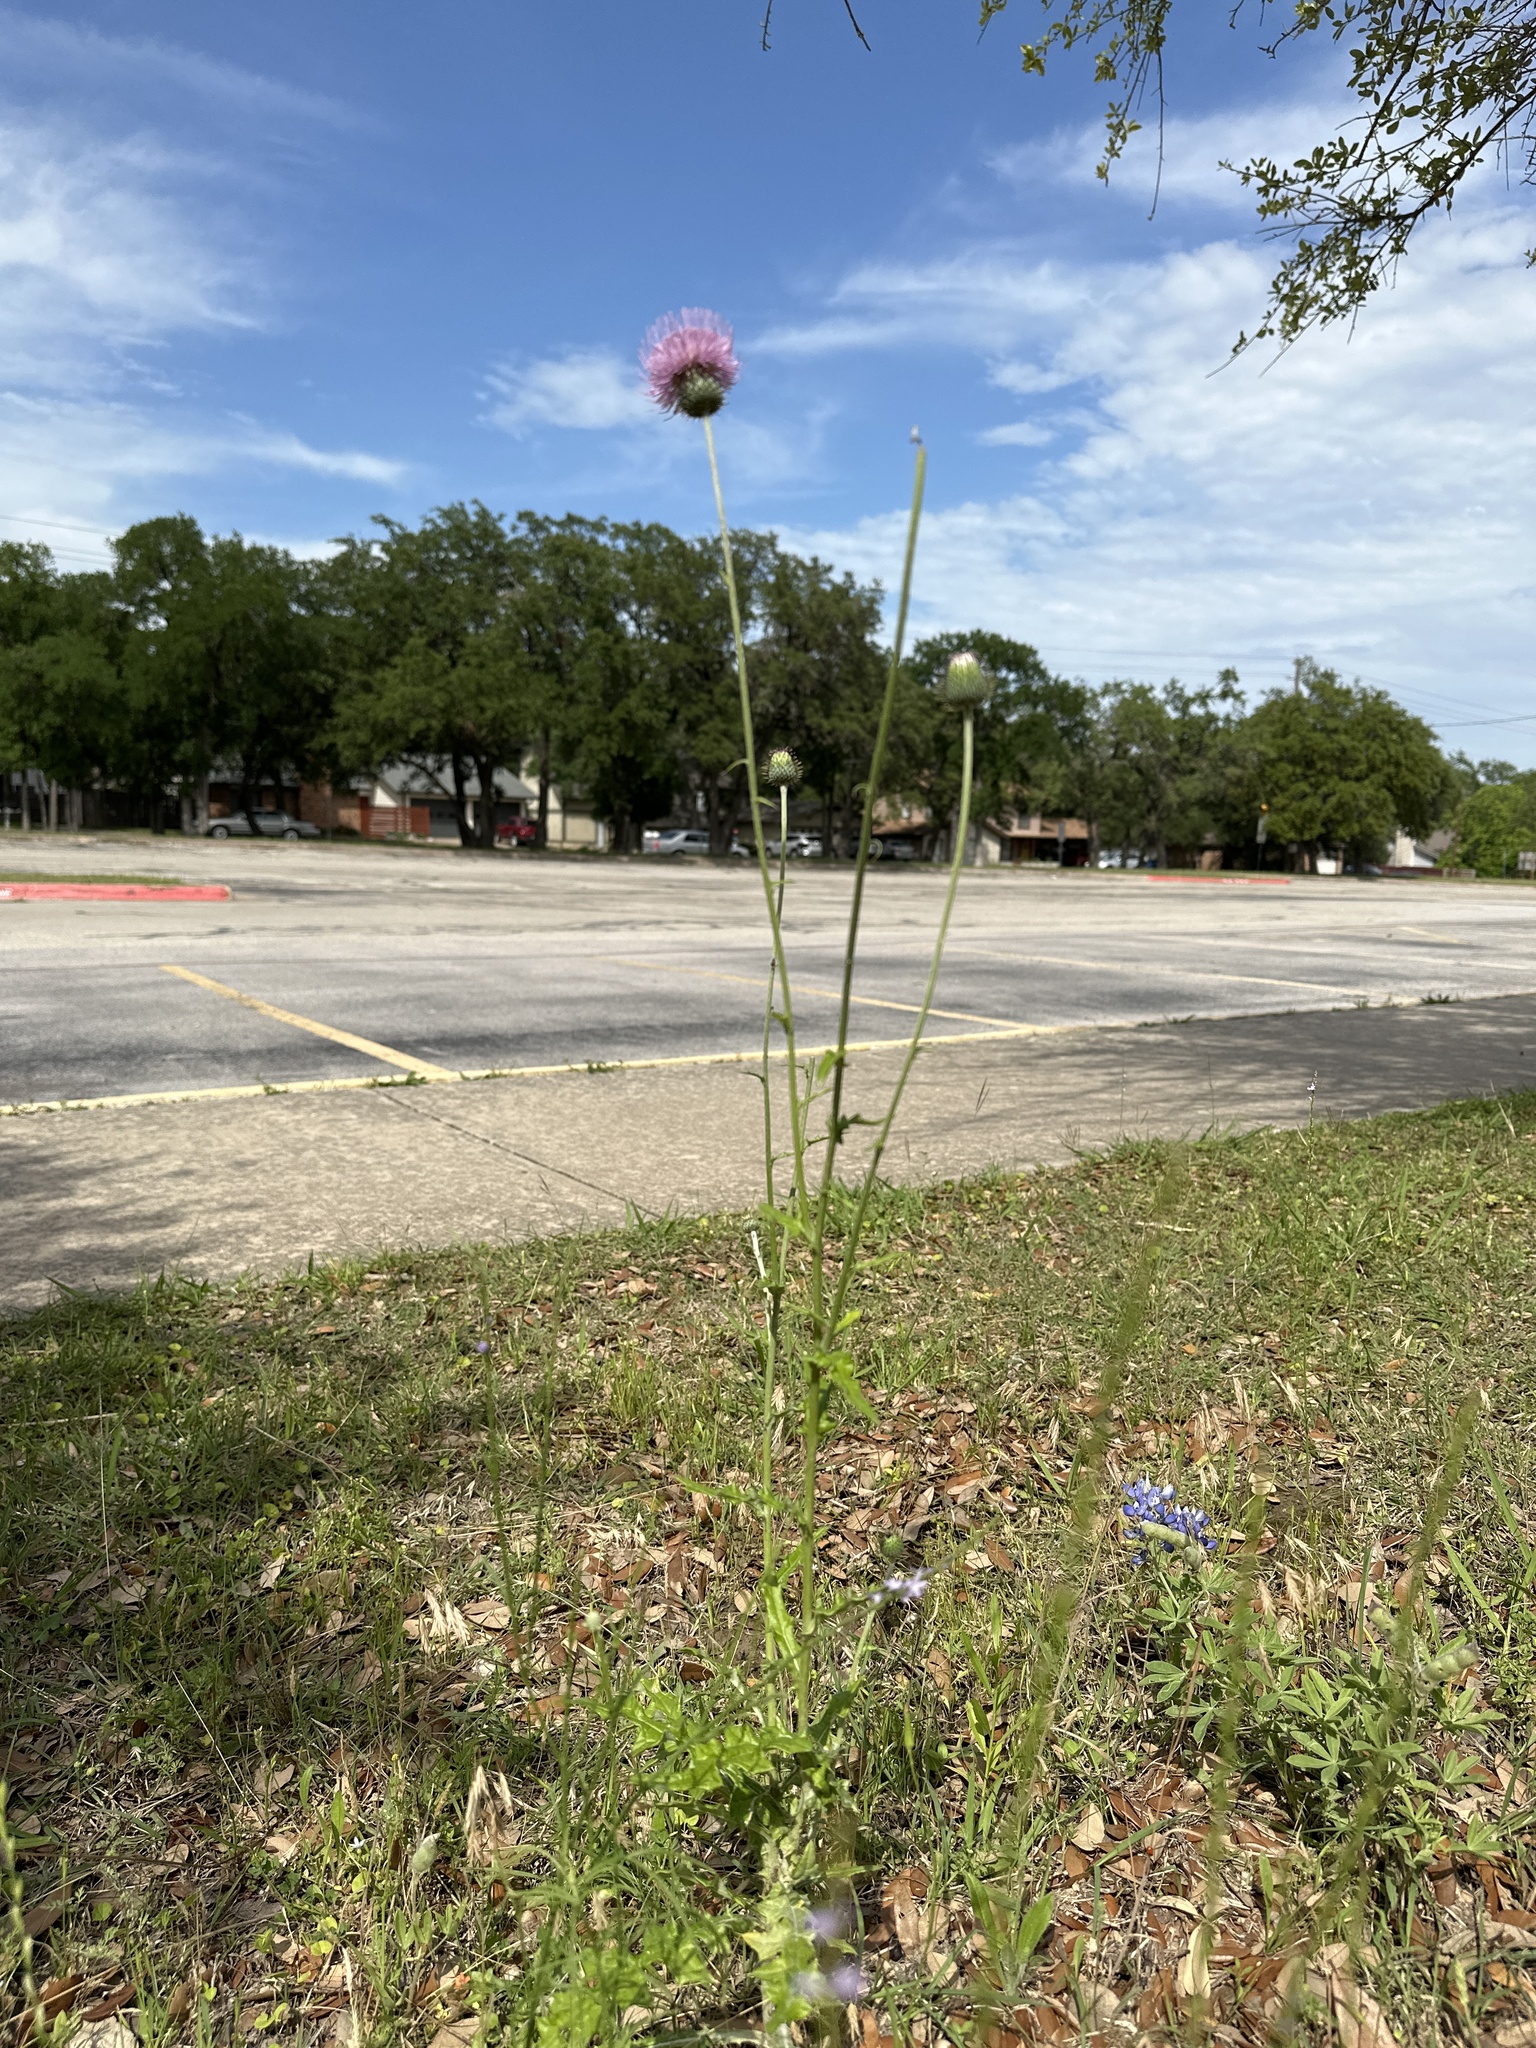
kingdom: Plantae
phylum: Tracheophyta
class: Magnoliopsida
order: Asterales
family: Asteraceae
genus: Cirsium
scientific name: Cirsium texanum
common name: Texas purple thistle
